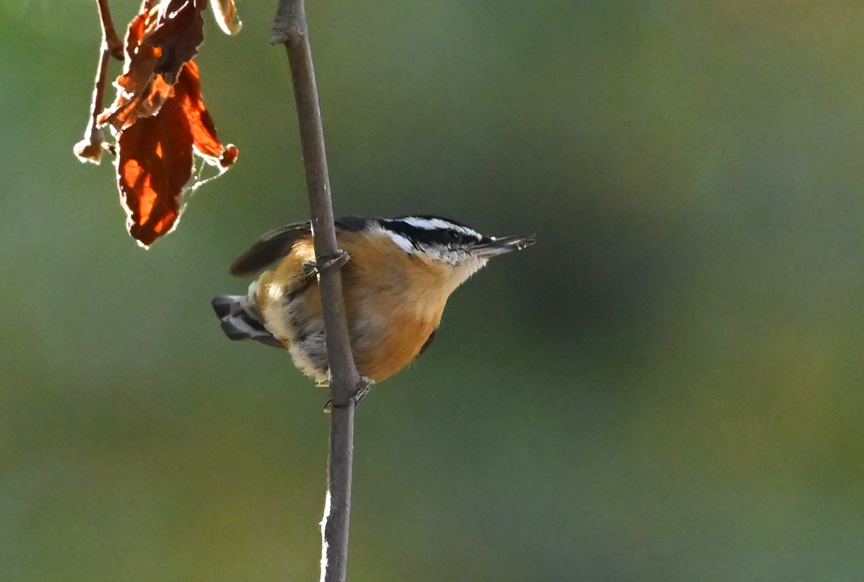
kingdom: Animalia
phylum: Chordata
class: Aves
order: Passeriformes
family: Sittidae
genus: Sitta
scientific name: Sitta canadensis
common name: Red-breasted nuthatch
